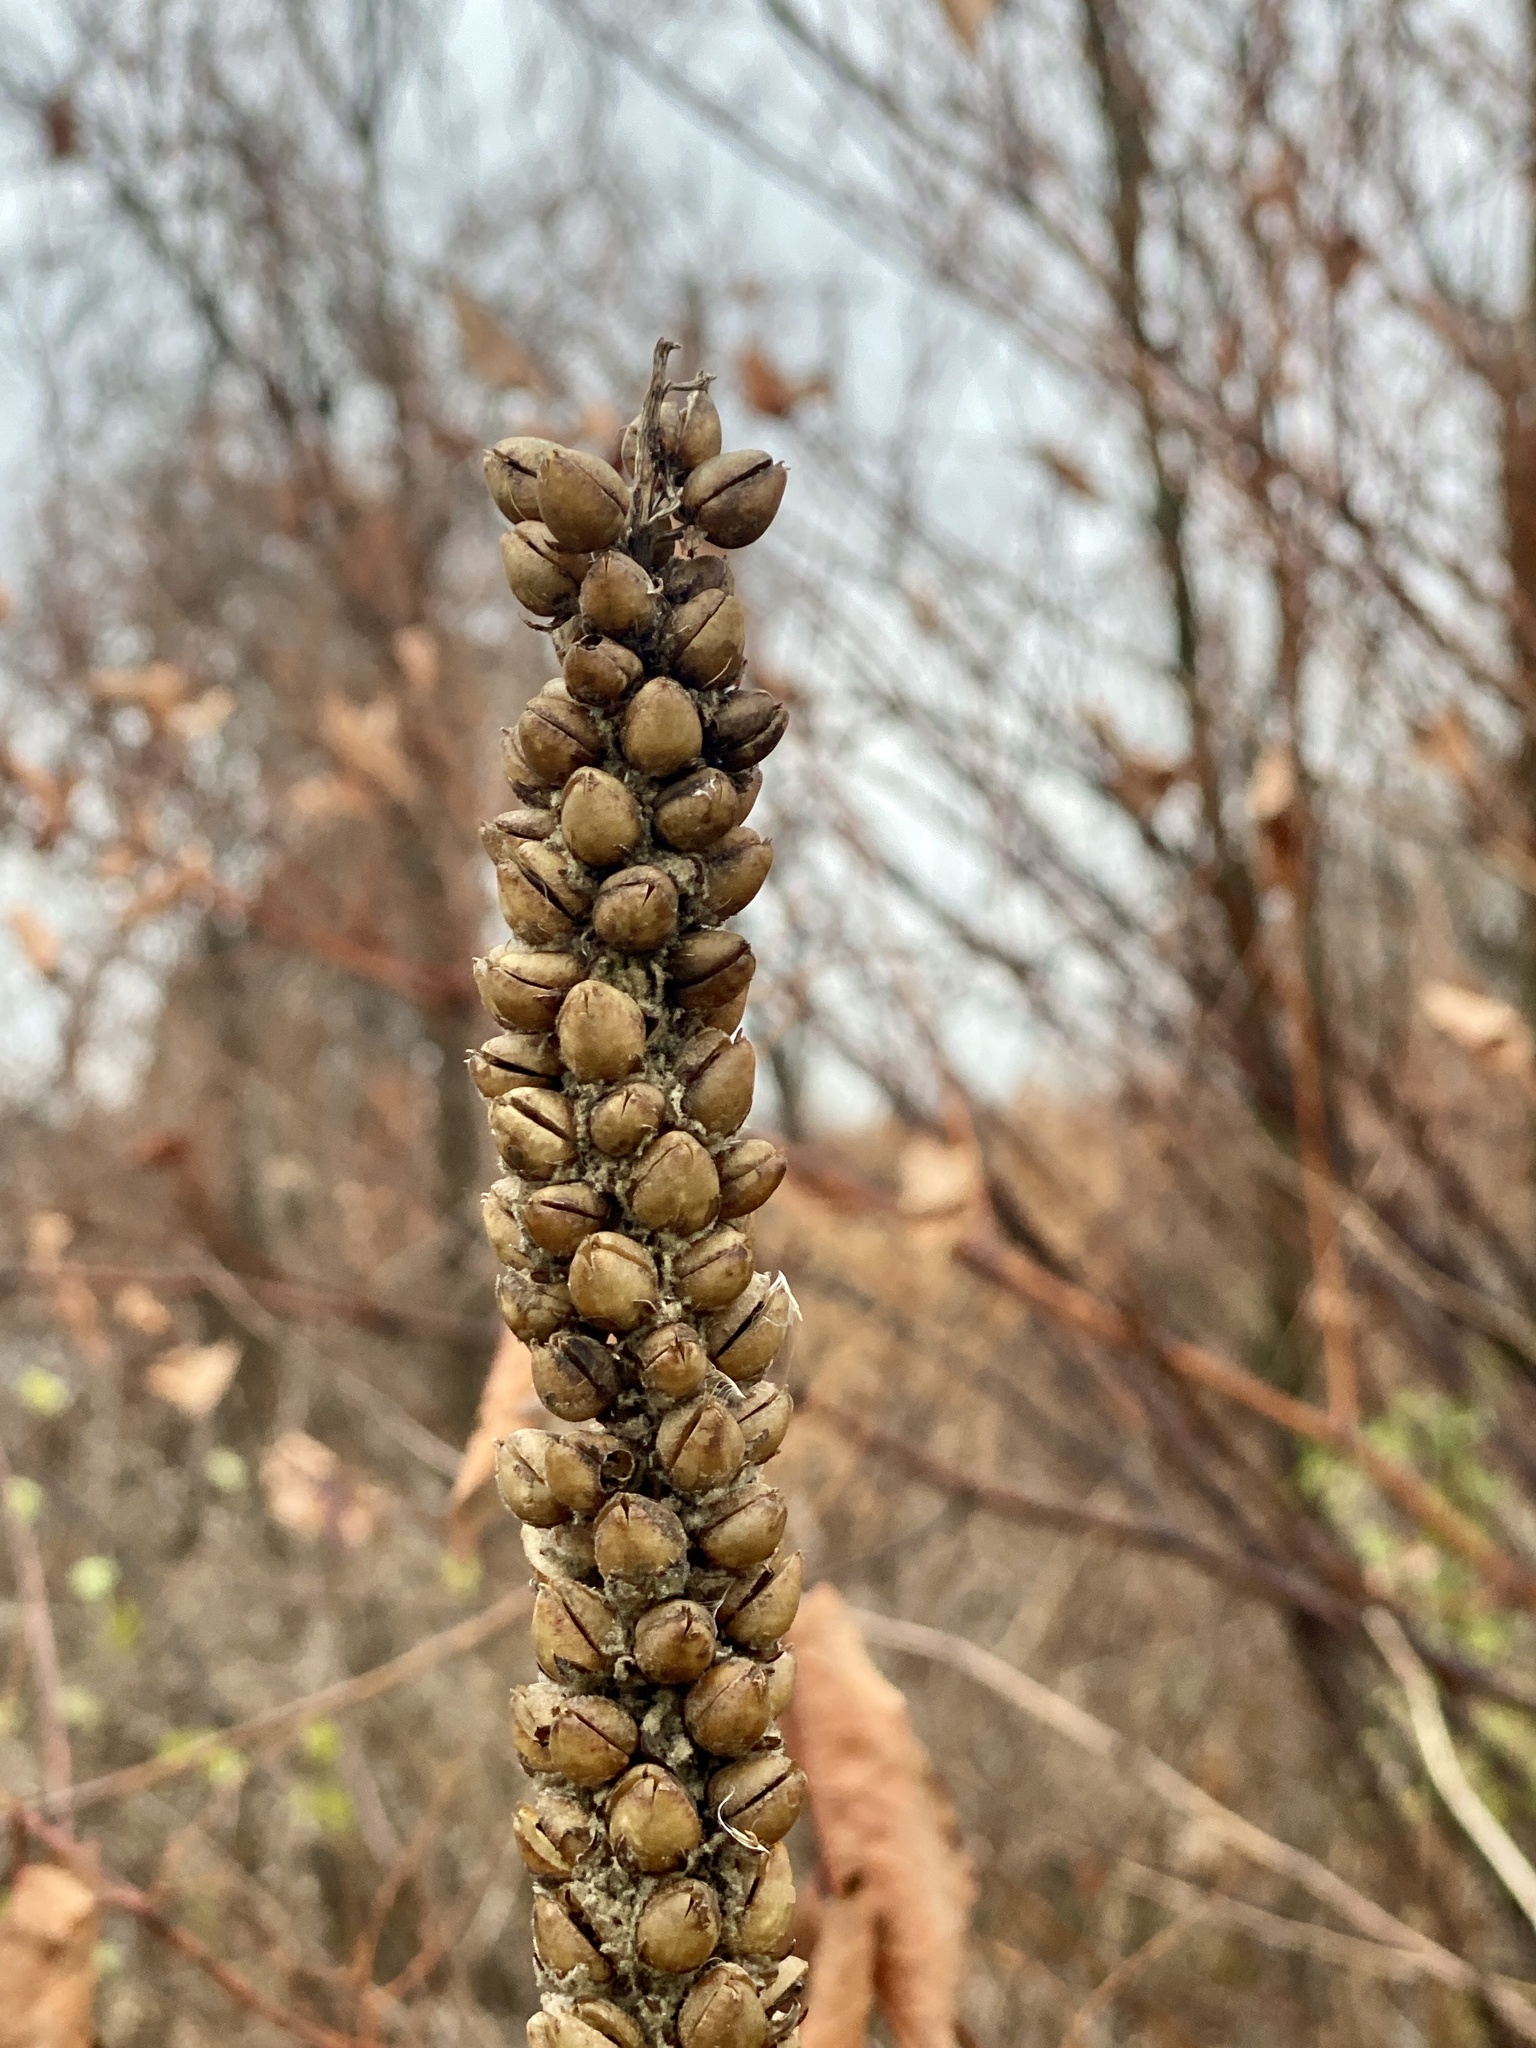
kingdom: Plantae
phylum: Tracheophyta
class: Magnoliopsida
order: Lamiales
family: Scrophulariaceae
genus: Verbascum
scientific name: Verbascum thapsus
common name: Common mullein
